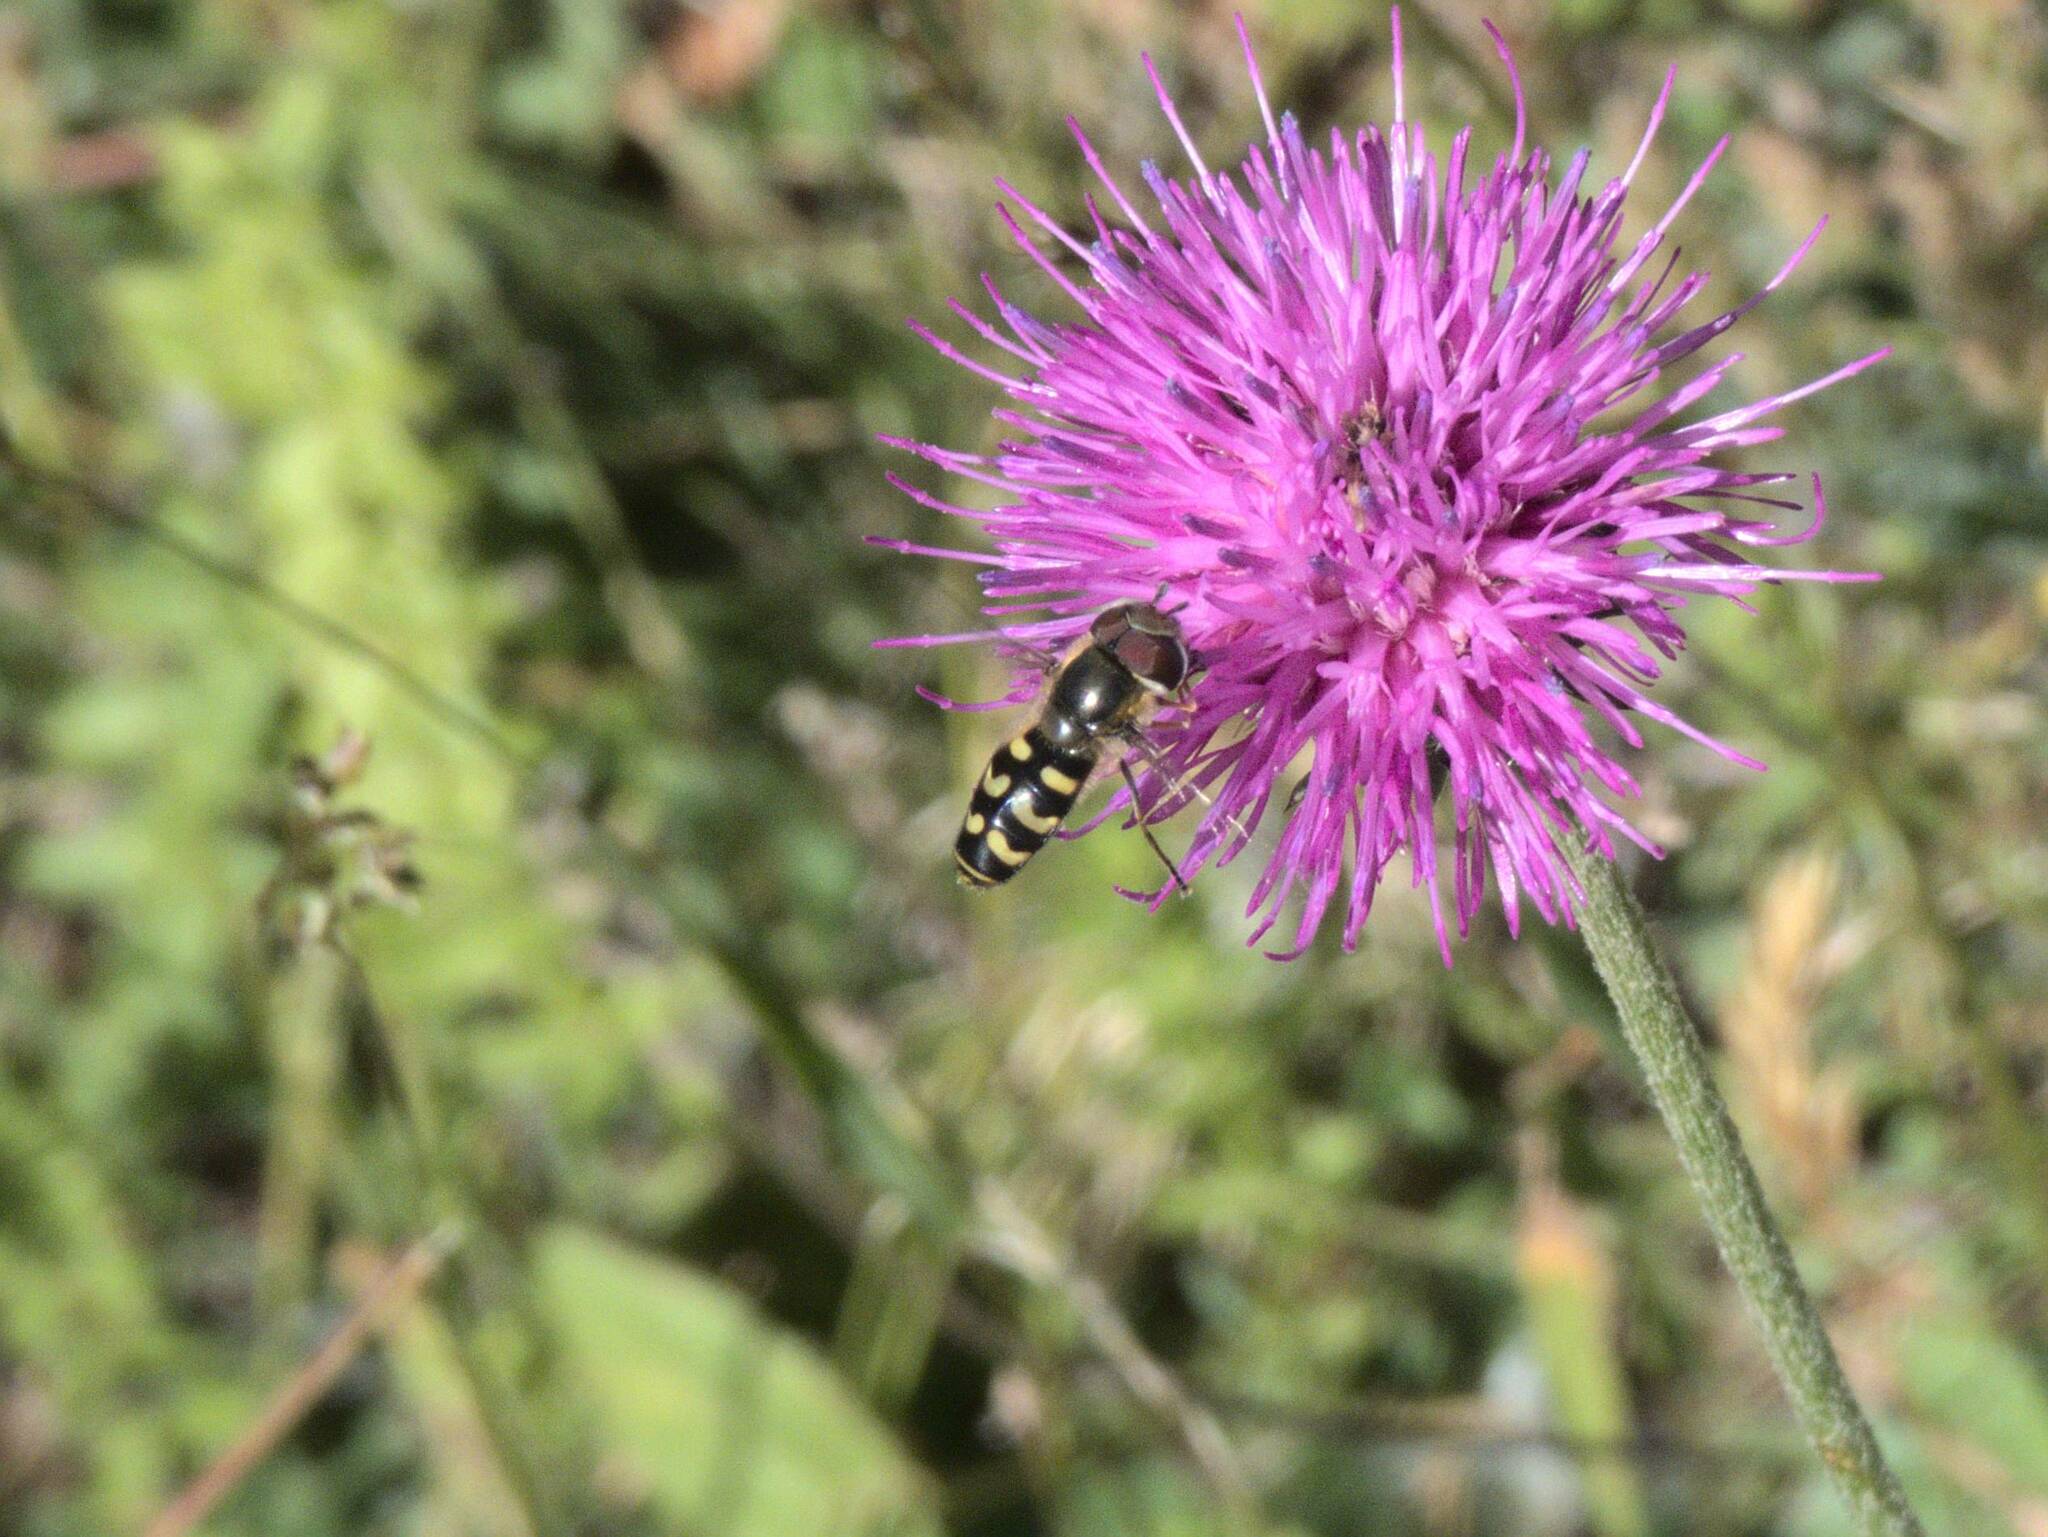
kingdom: Animalia
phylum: Arthropoda
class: Insecta
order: Diptera
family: Syrphidae
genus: Scaeva
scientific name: Scaeva selenitica
